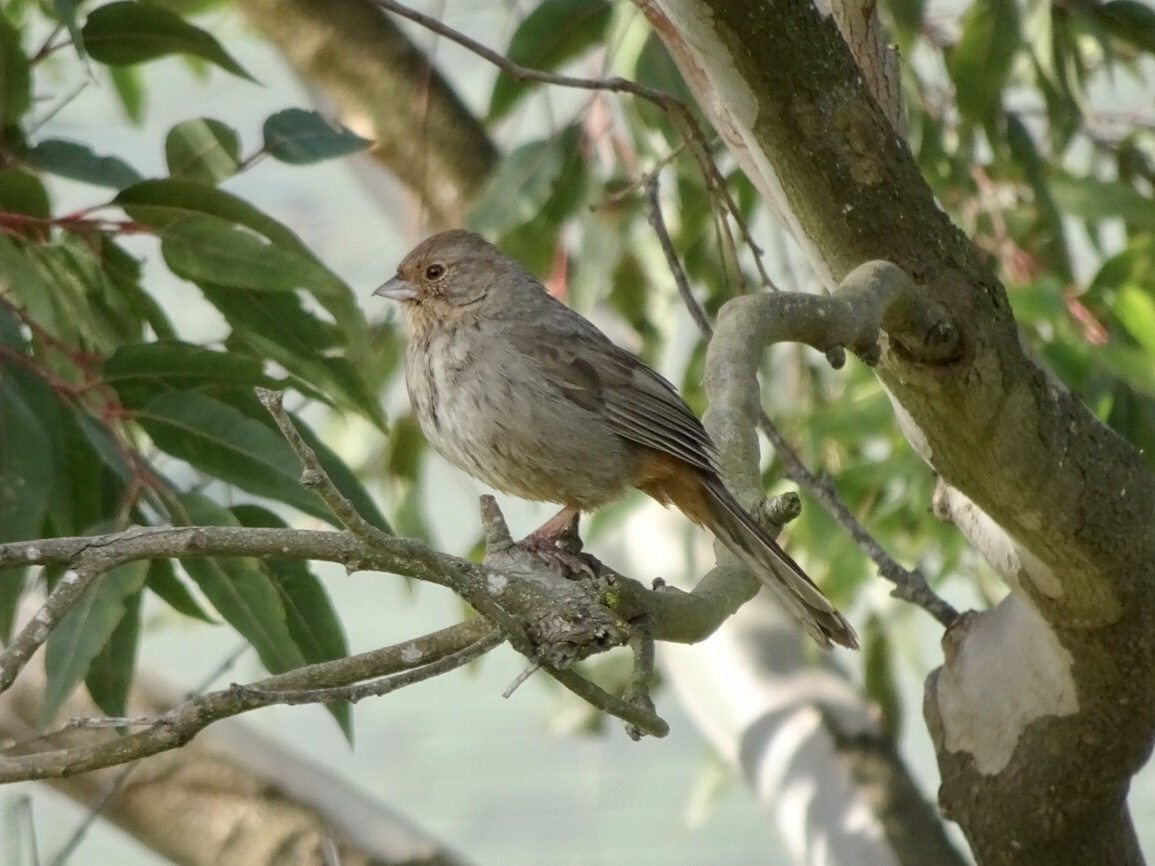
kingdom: Animalia
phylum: Chordata
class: Aves
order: Passeriformes
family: Passerellidae
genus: Melozone
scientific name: Melozone crissalis
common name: California towhee
